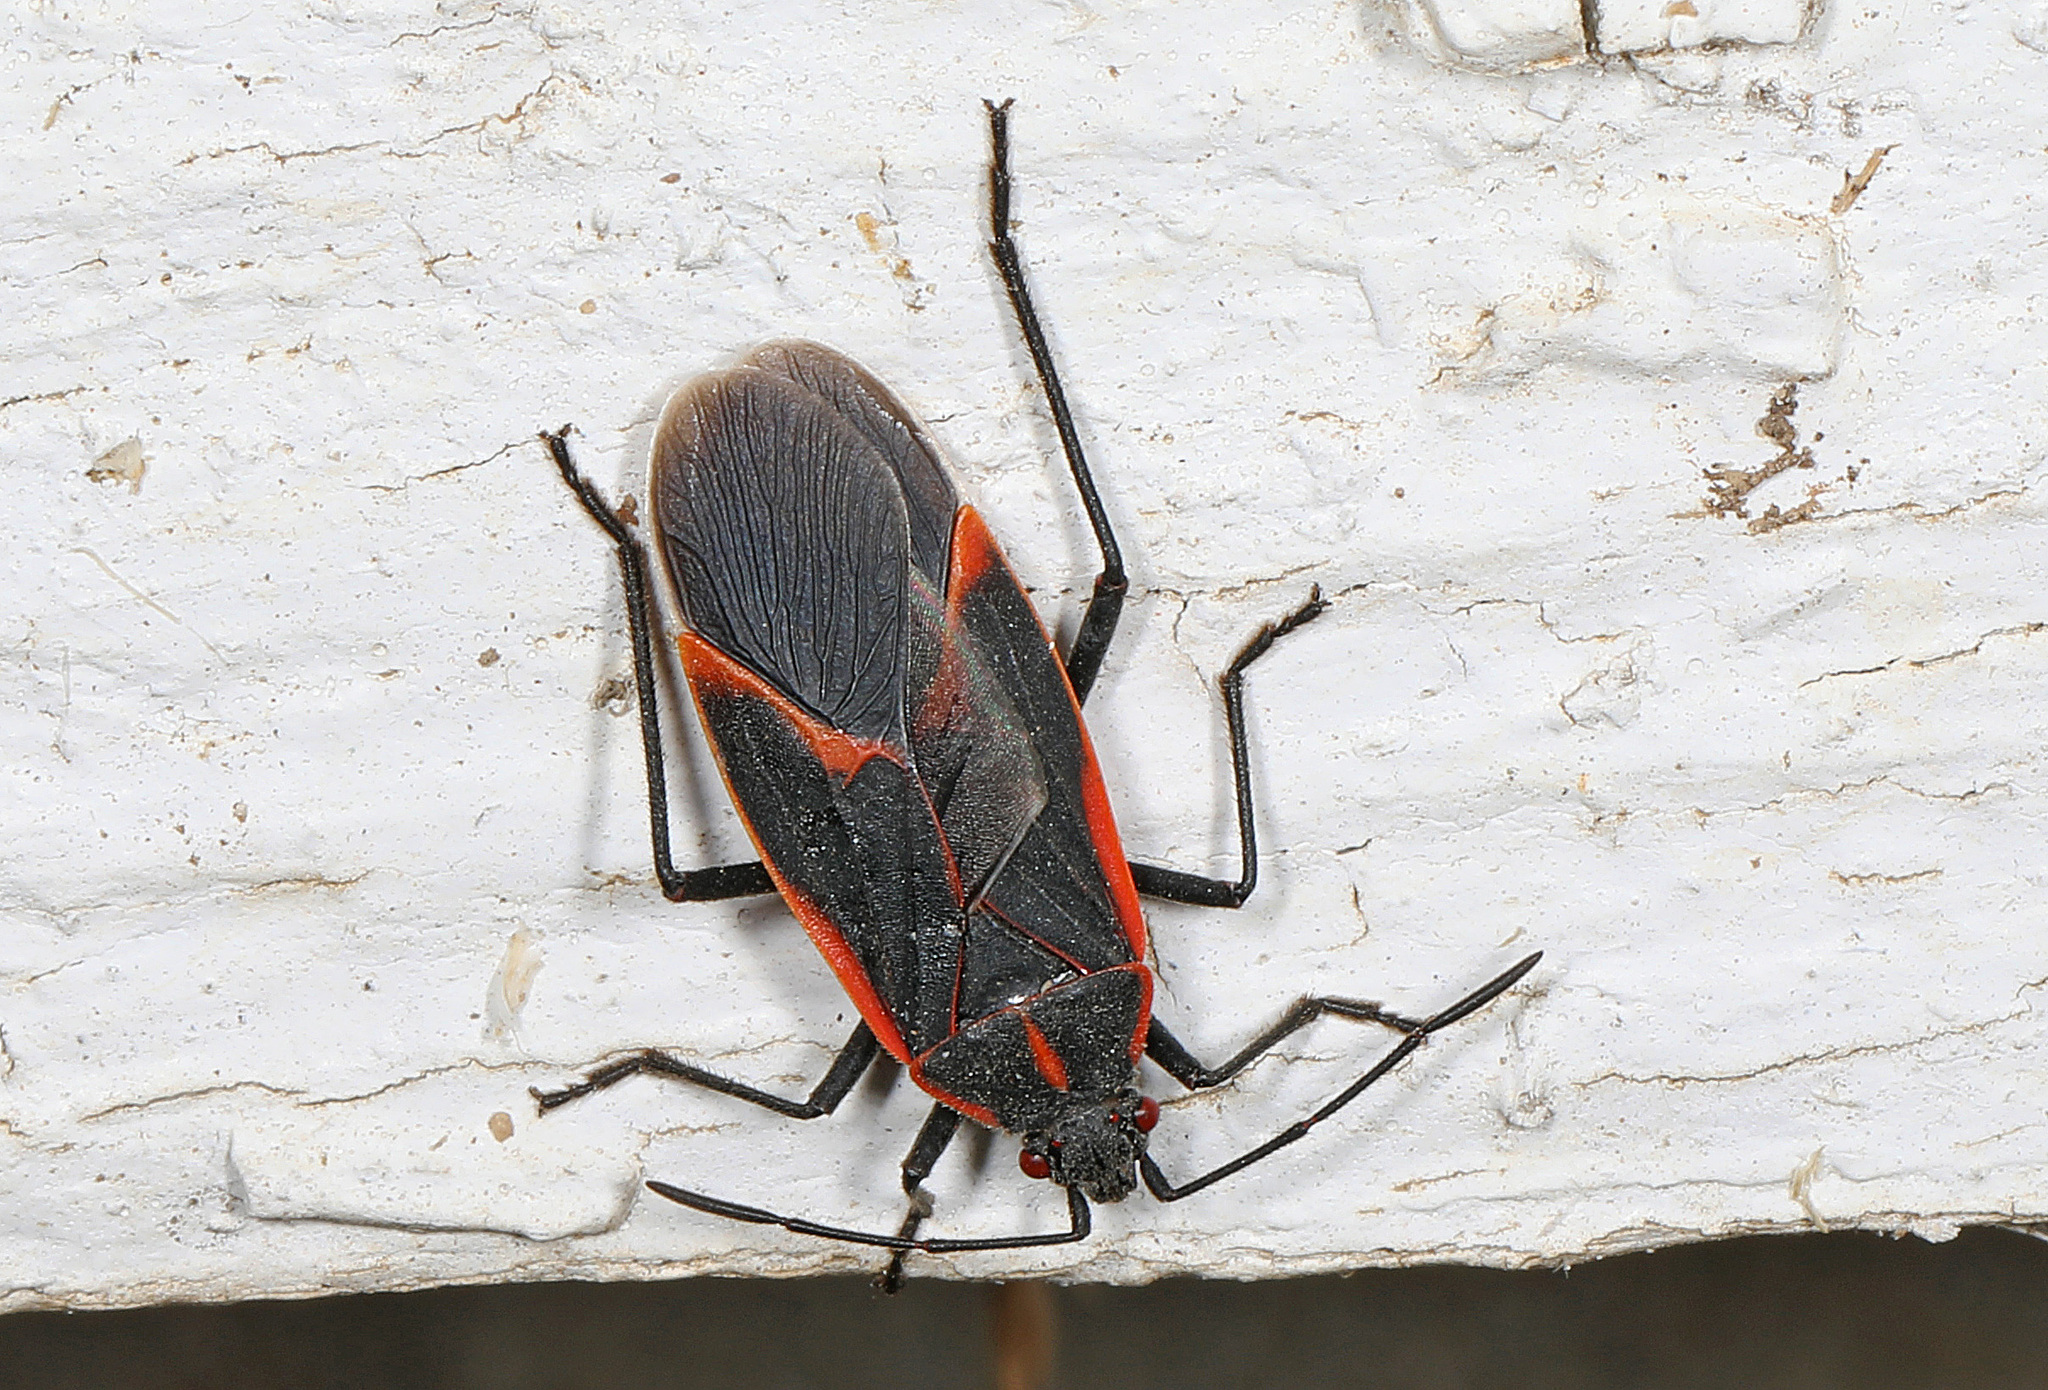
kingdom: Animalia
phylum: Arthropoda
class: Insecta
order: Hemiptera
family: Rhopalidae
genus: Boisea
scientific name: Boisea trivittata
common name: Boxelder bug
